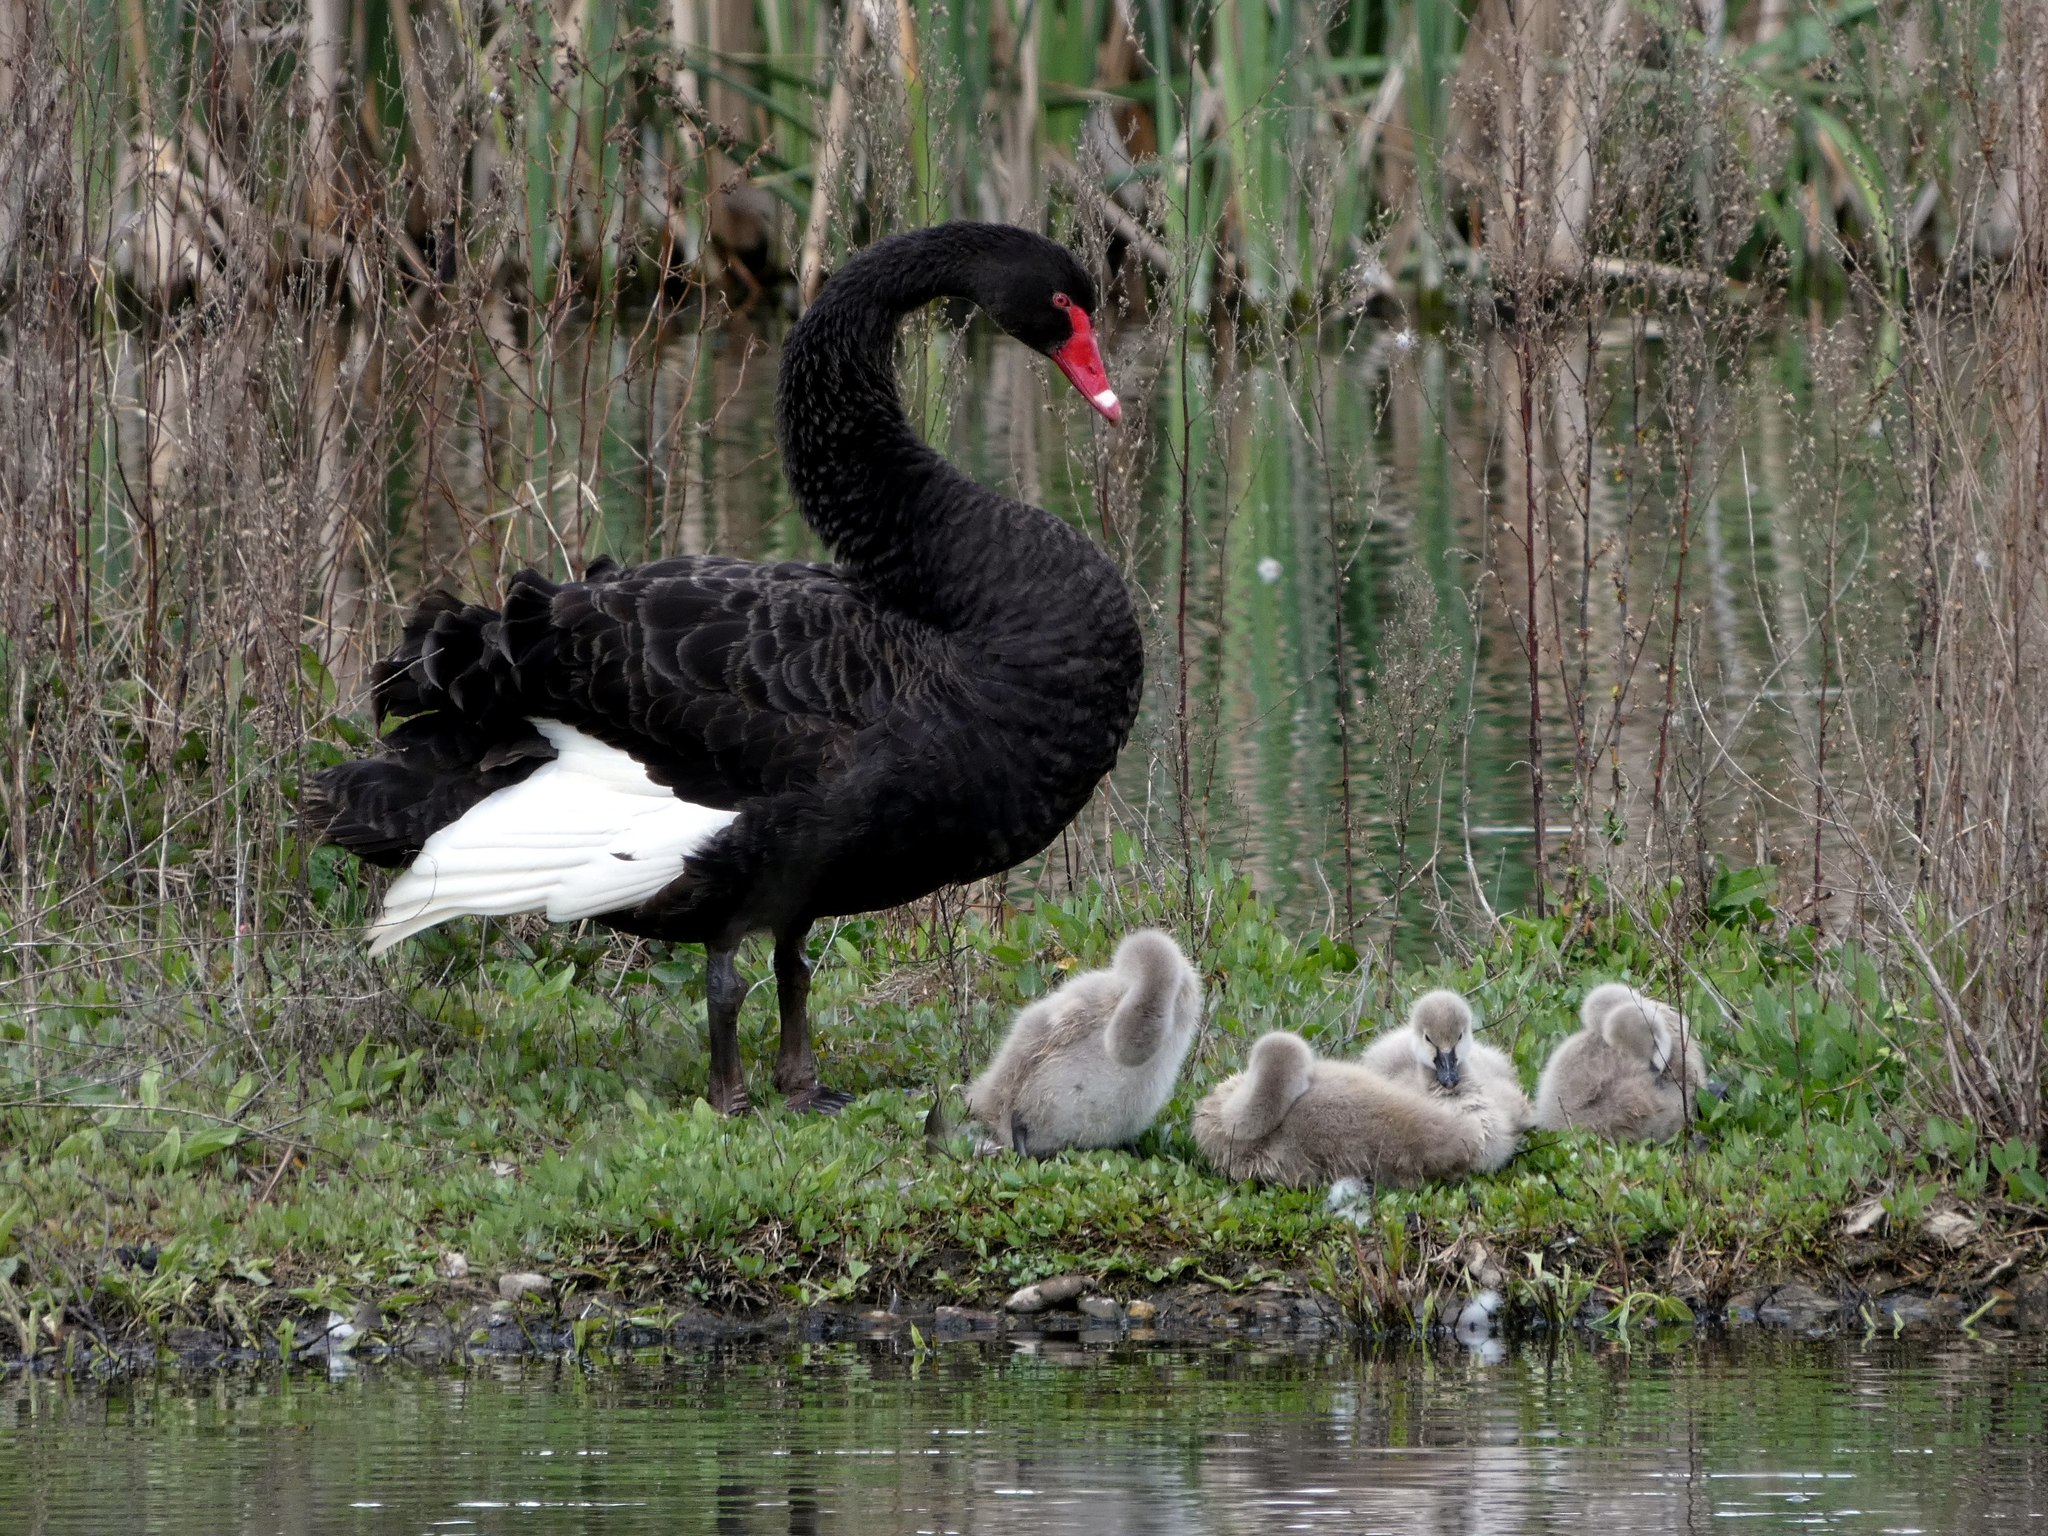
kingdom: Animalia
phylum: Chordata
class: Aves
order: Anseriformes
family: Anatidae
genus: Cygnus
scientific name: Cygnus atratus
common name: Black swan
